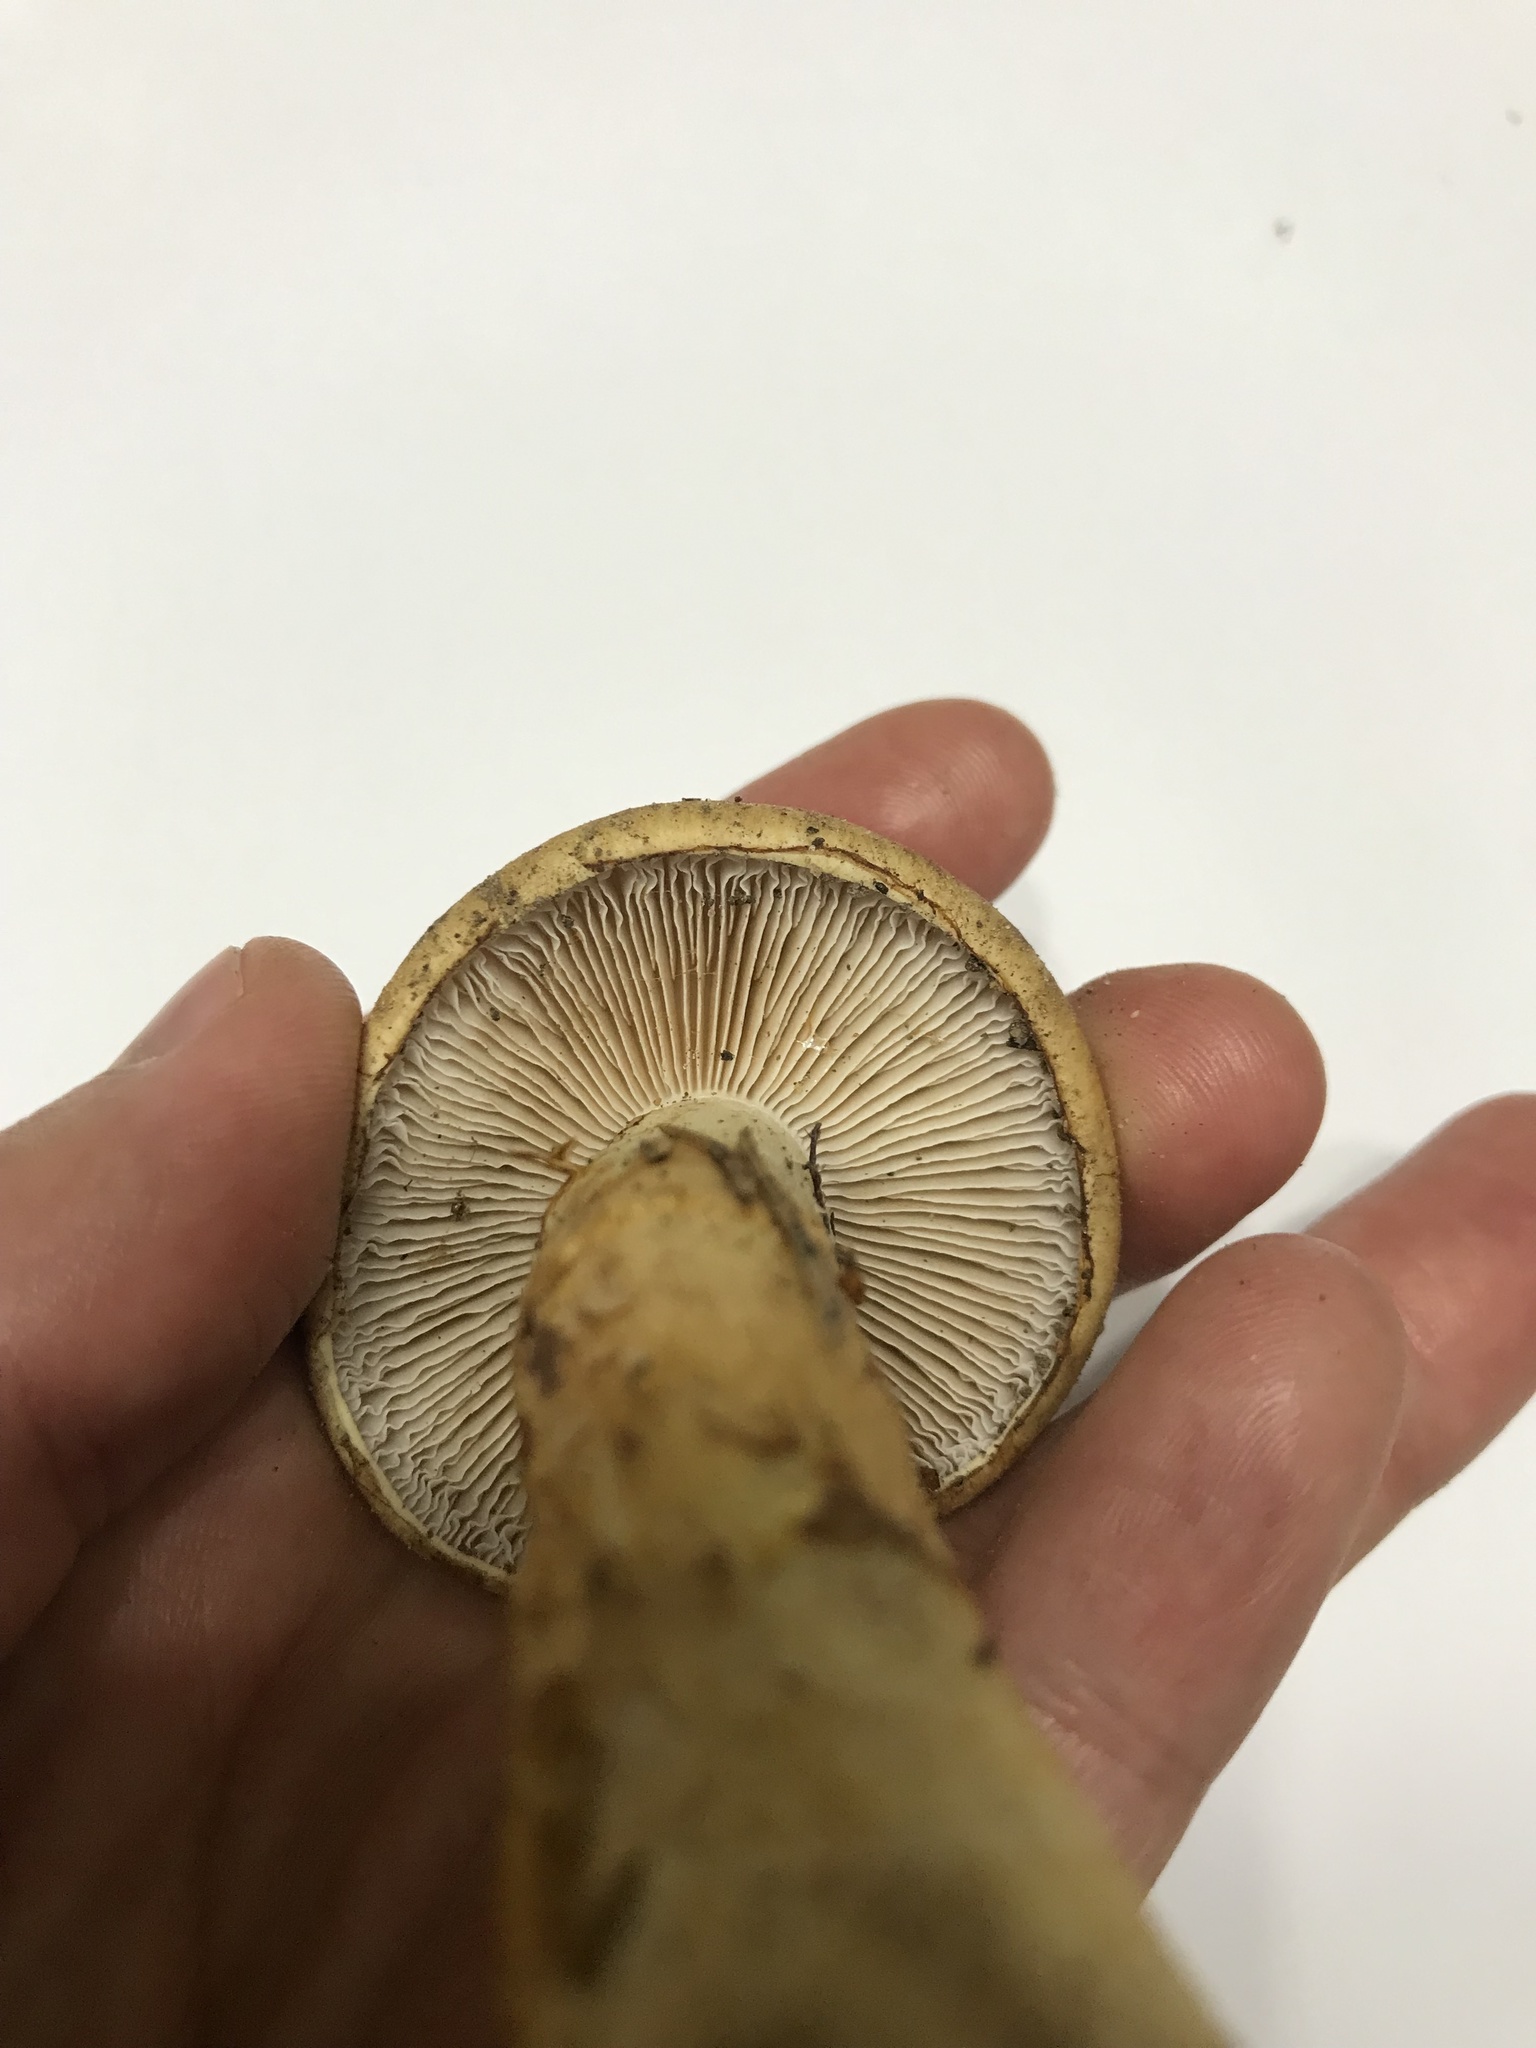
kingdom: Fungi
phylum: Basidiomycota
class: Agaricomycetes
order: Agaricales
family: Cortinariaceae
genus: Phlegmacium
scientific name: Phlegmacium triumphans
